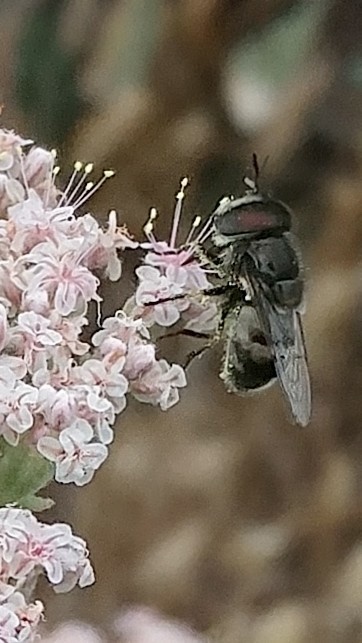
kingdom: Animalia
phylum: Arthropoda
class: Insecta
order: Diptera
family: Syrphidae
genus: Copestylum
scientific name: Copestylum lentum
